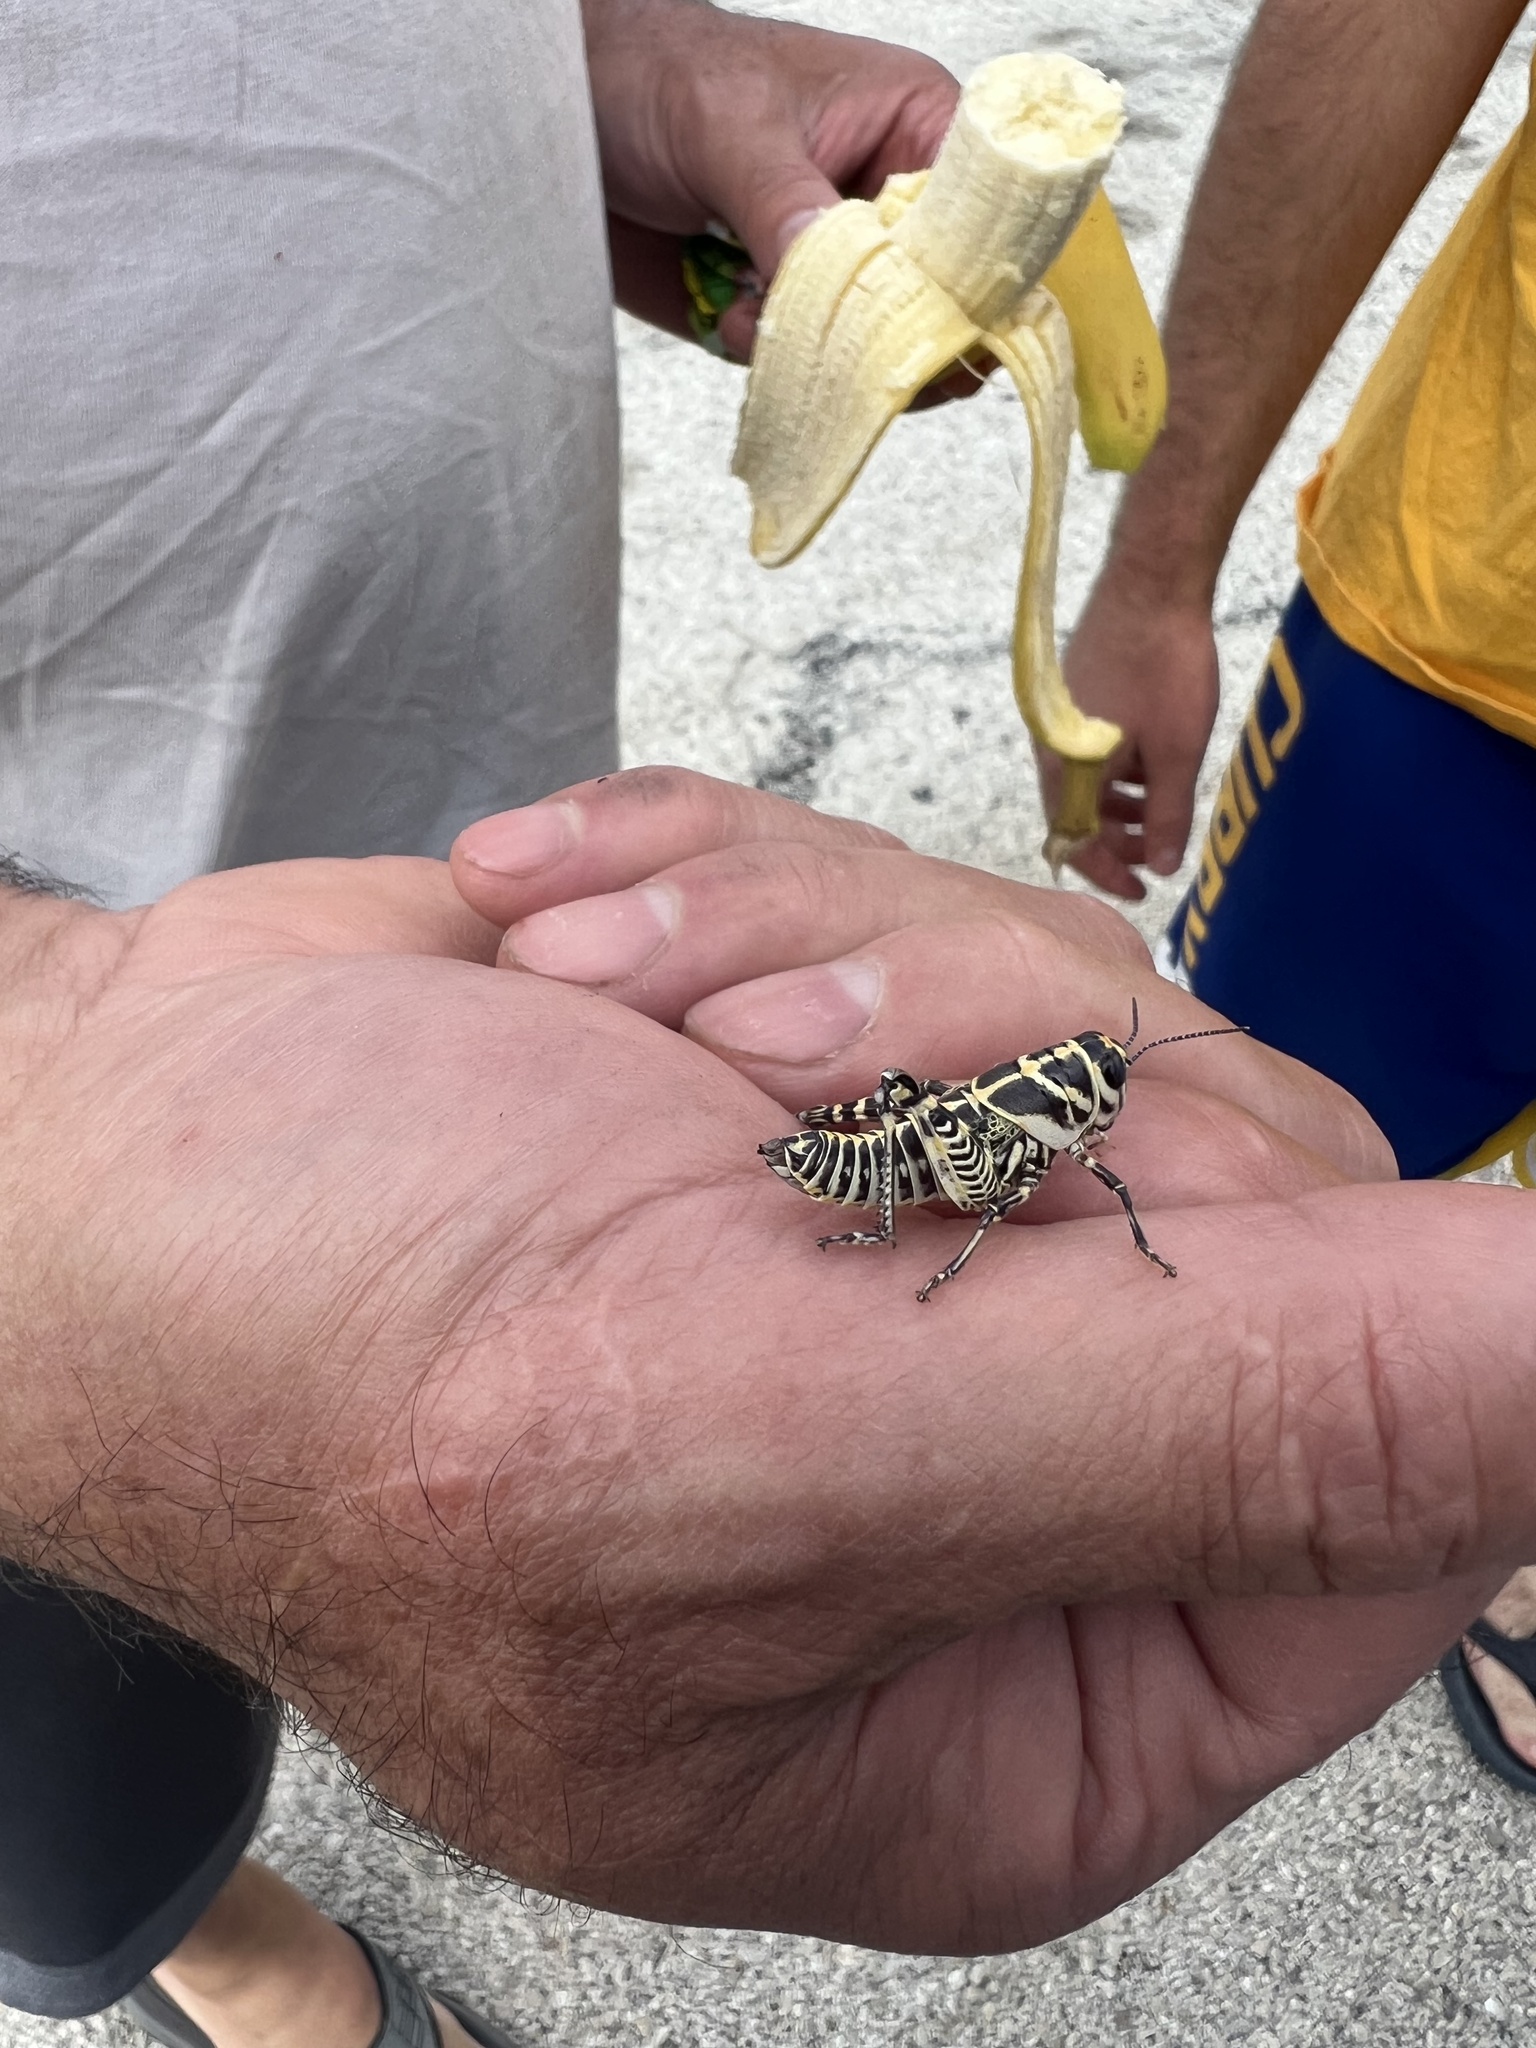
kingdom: Animalia
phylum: Arthropoda
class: Insecta
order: Orthoptera
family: Acrididae
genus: Dactylotum
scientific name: Dactylotum bicolor
